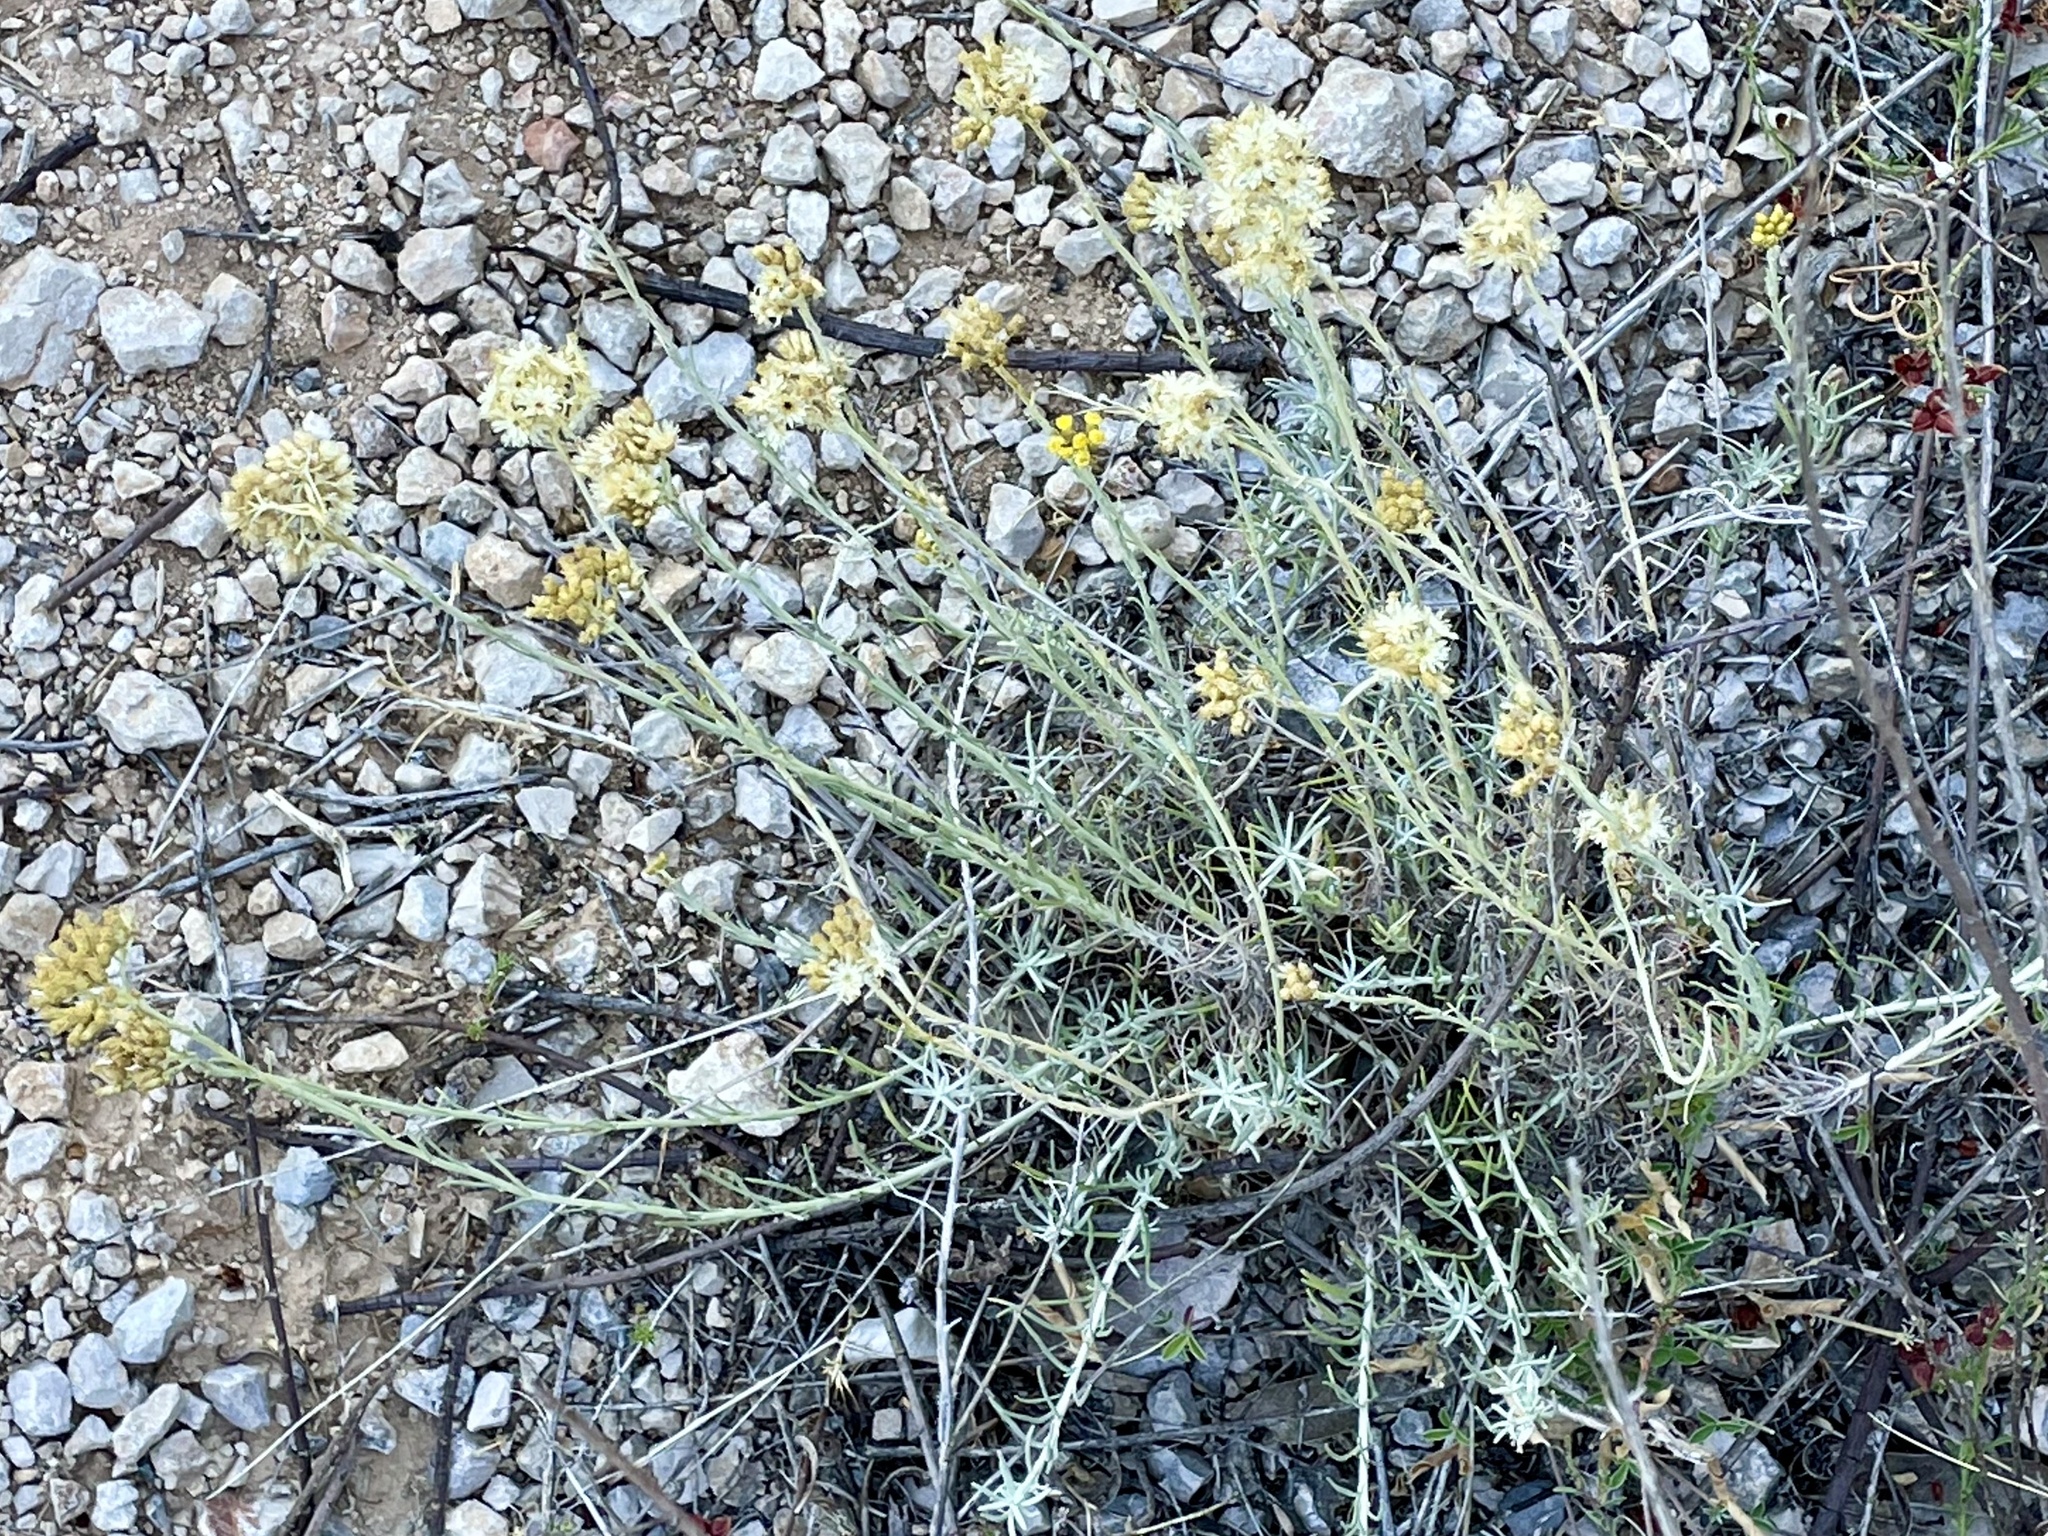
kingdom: Plantae
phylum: Tracheophyta
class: Magnoliopsida
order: Asterales
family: Asteraceae
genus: Helichrysum
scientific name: Helichrysum italicum
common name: Curryplant
